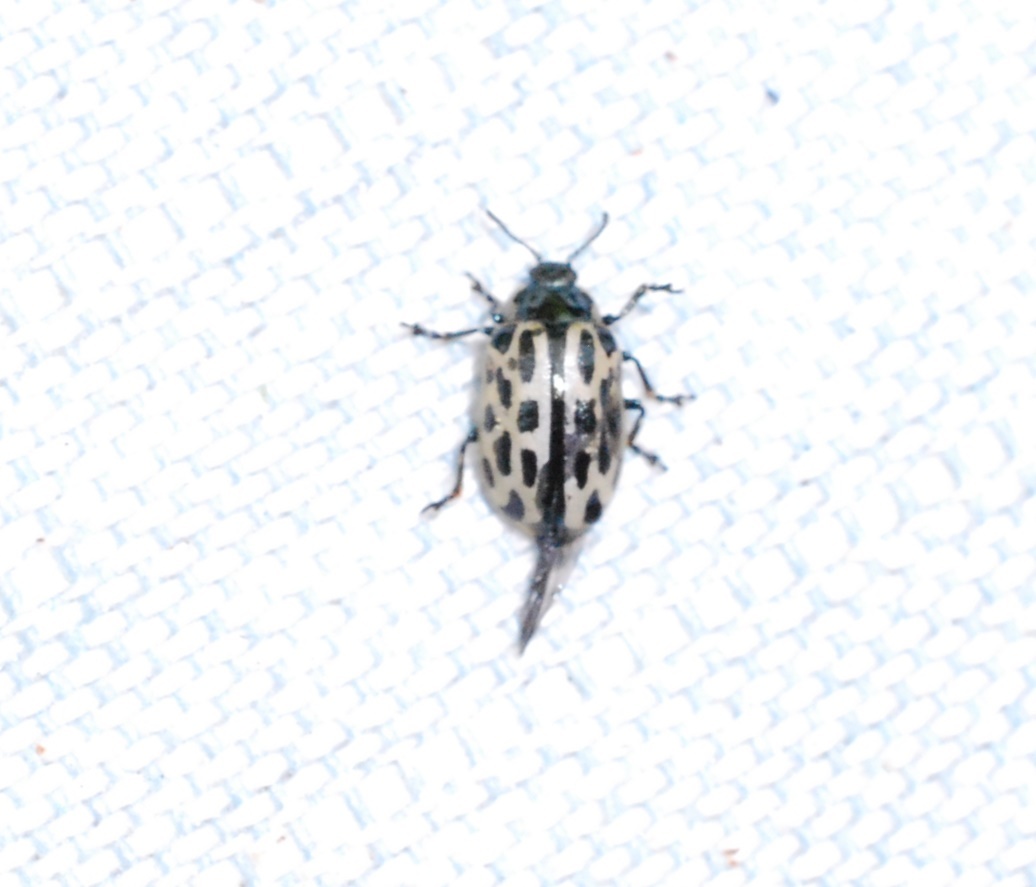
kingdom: Animalia
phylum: Arthropoda
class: Insecta
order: Coleoptera
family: Chrysomelidae
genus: Chrysomela
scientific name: Chrysomela vigintipunctata
